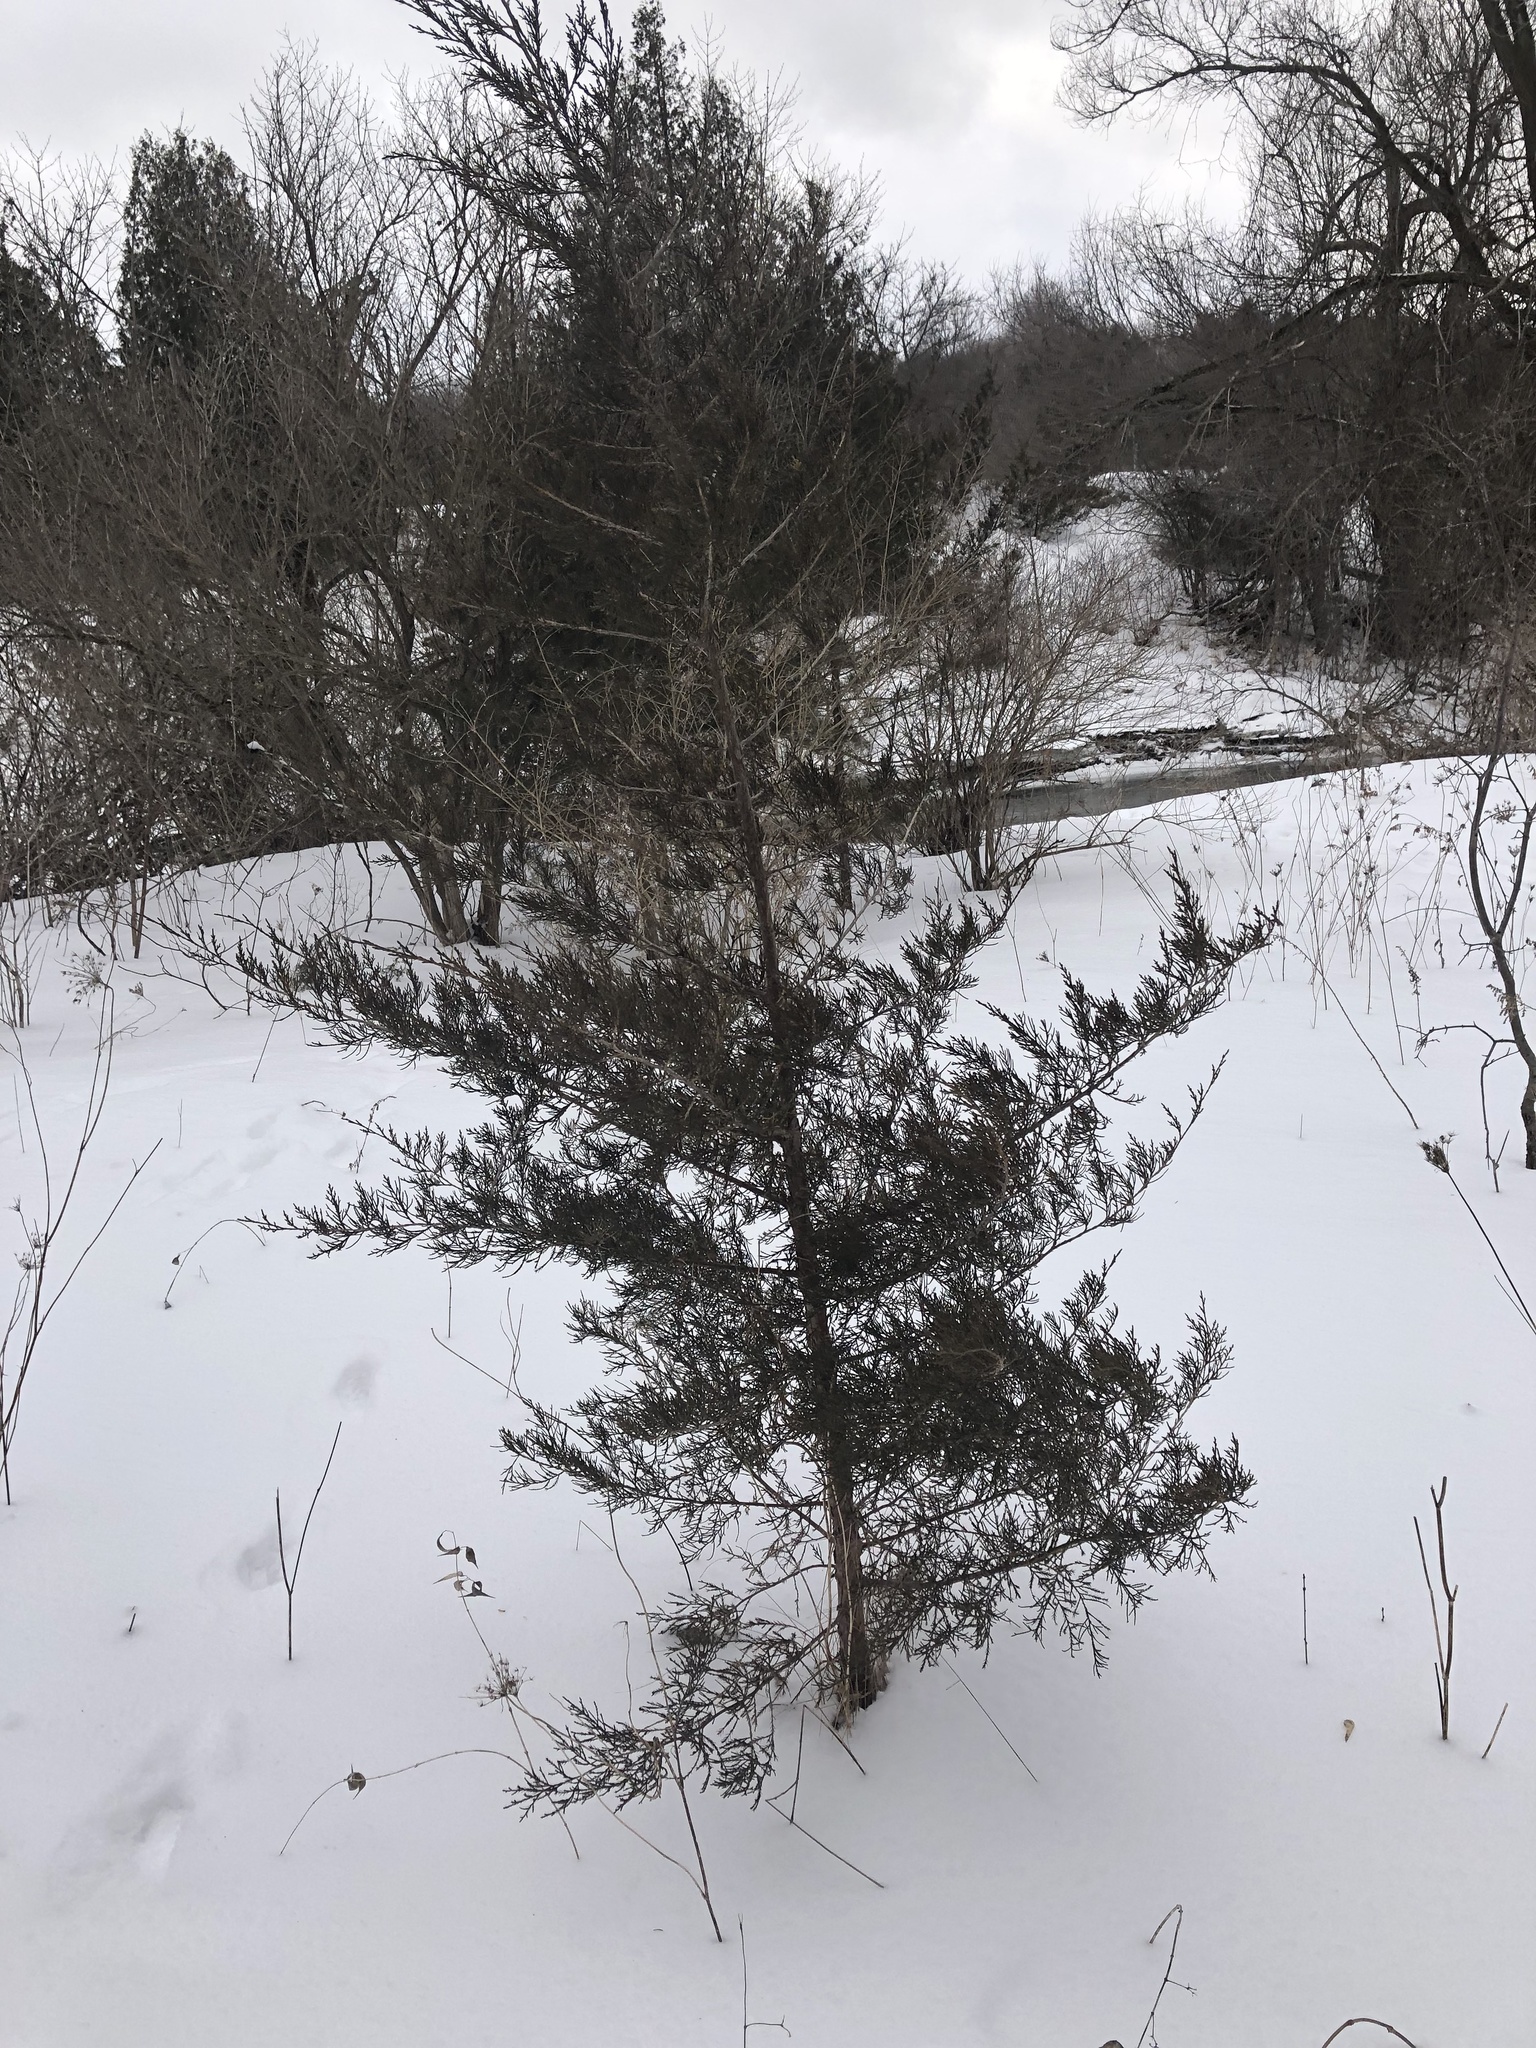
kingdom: Plantae
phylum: Tracheophyta
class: Pinopsida
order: Pinales
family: Cupressaceae
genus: Juniperus
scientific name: Juniperus virginiana
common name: Red juniper
